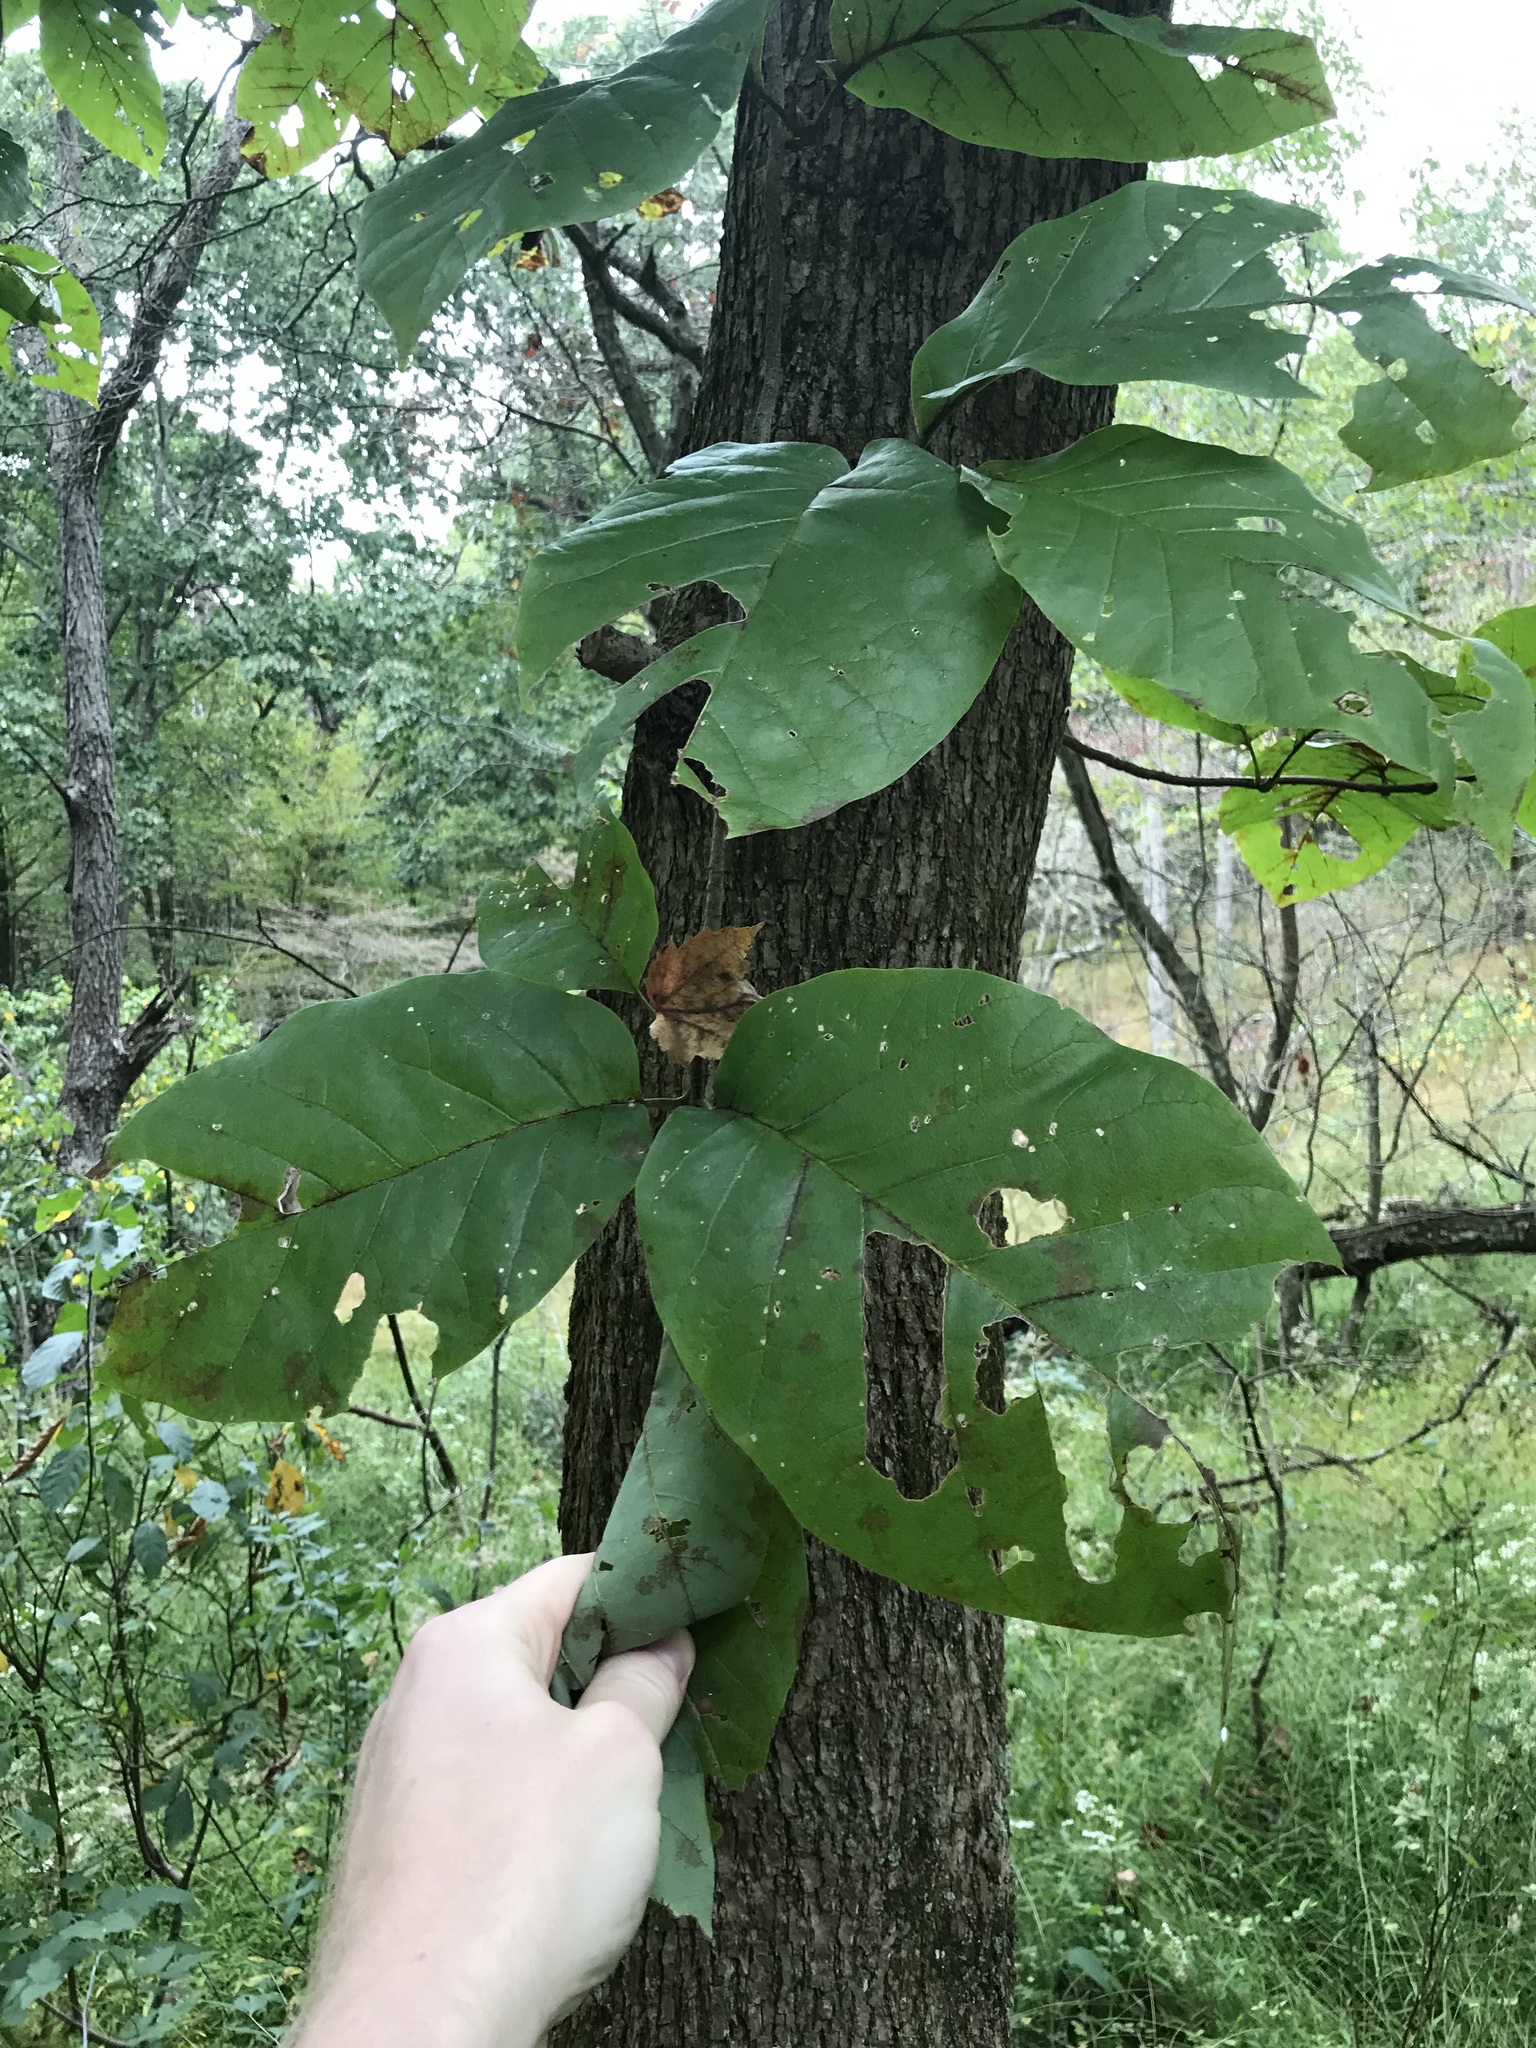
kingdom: Plantae
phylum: Tracheophyta
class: Magnoliopsida
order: Magnoliales
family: Magnoliaceae
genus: Magnolia
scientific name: Magnolia acuminata
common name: Cucumber magnolia
